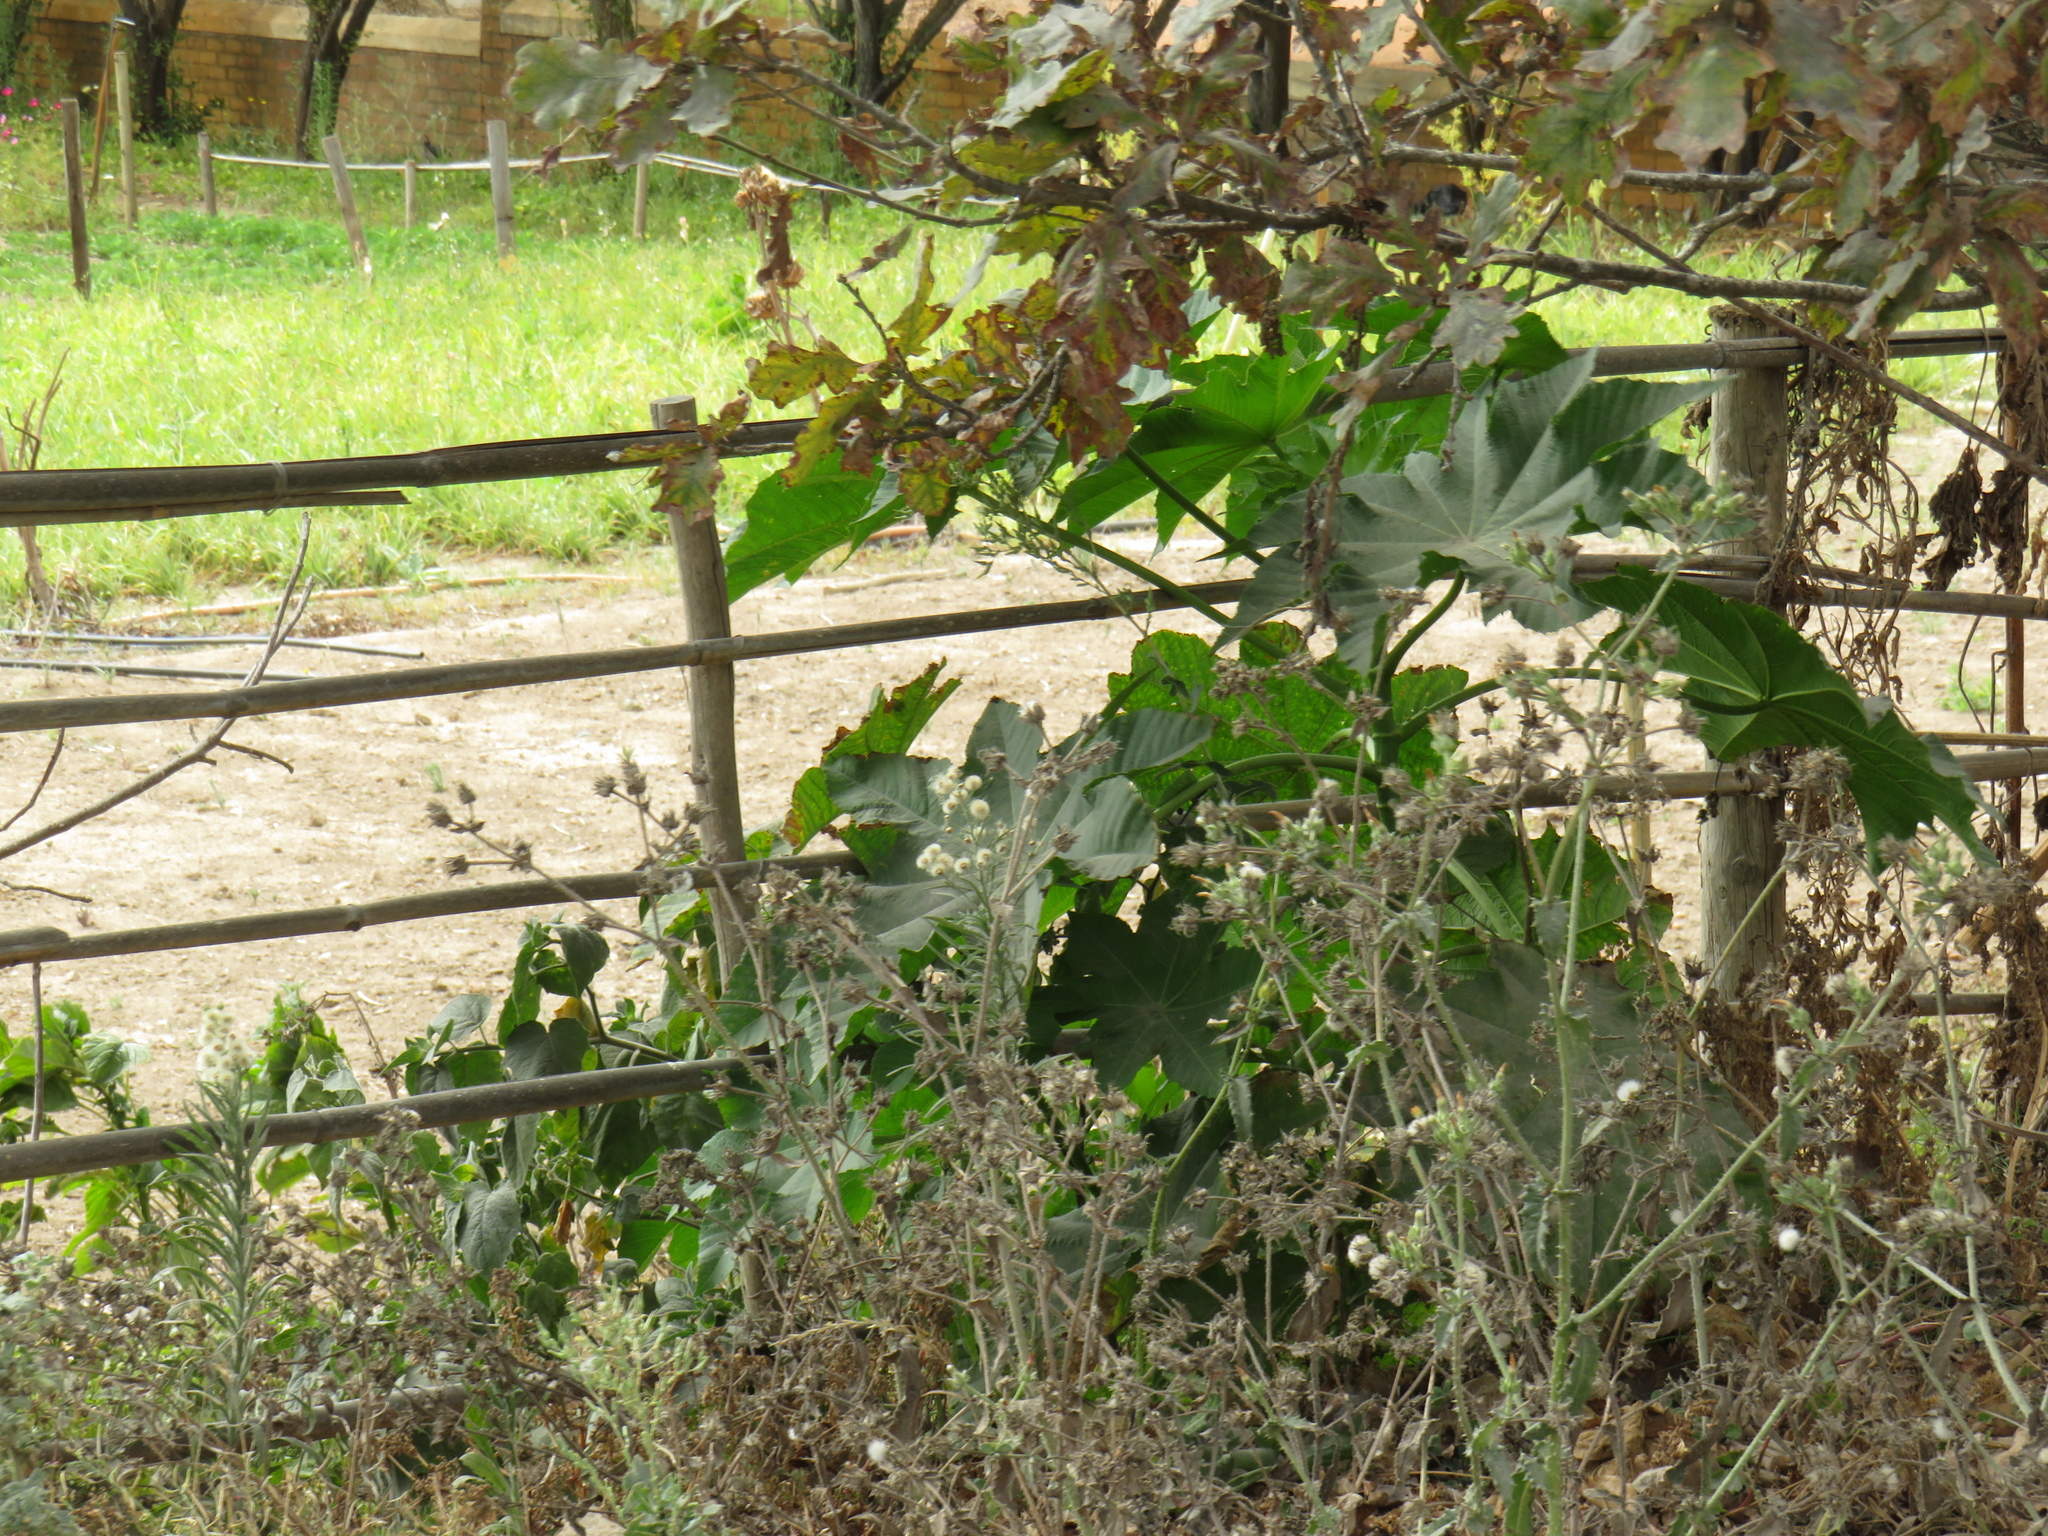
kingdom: Plantae
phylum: Tracheophyta
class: Magnoliopsida
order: Malpighiales
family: Euphorbiaceae
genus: Ricinus
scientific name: Ricinus communis
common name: Castor-oil-plant
